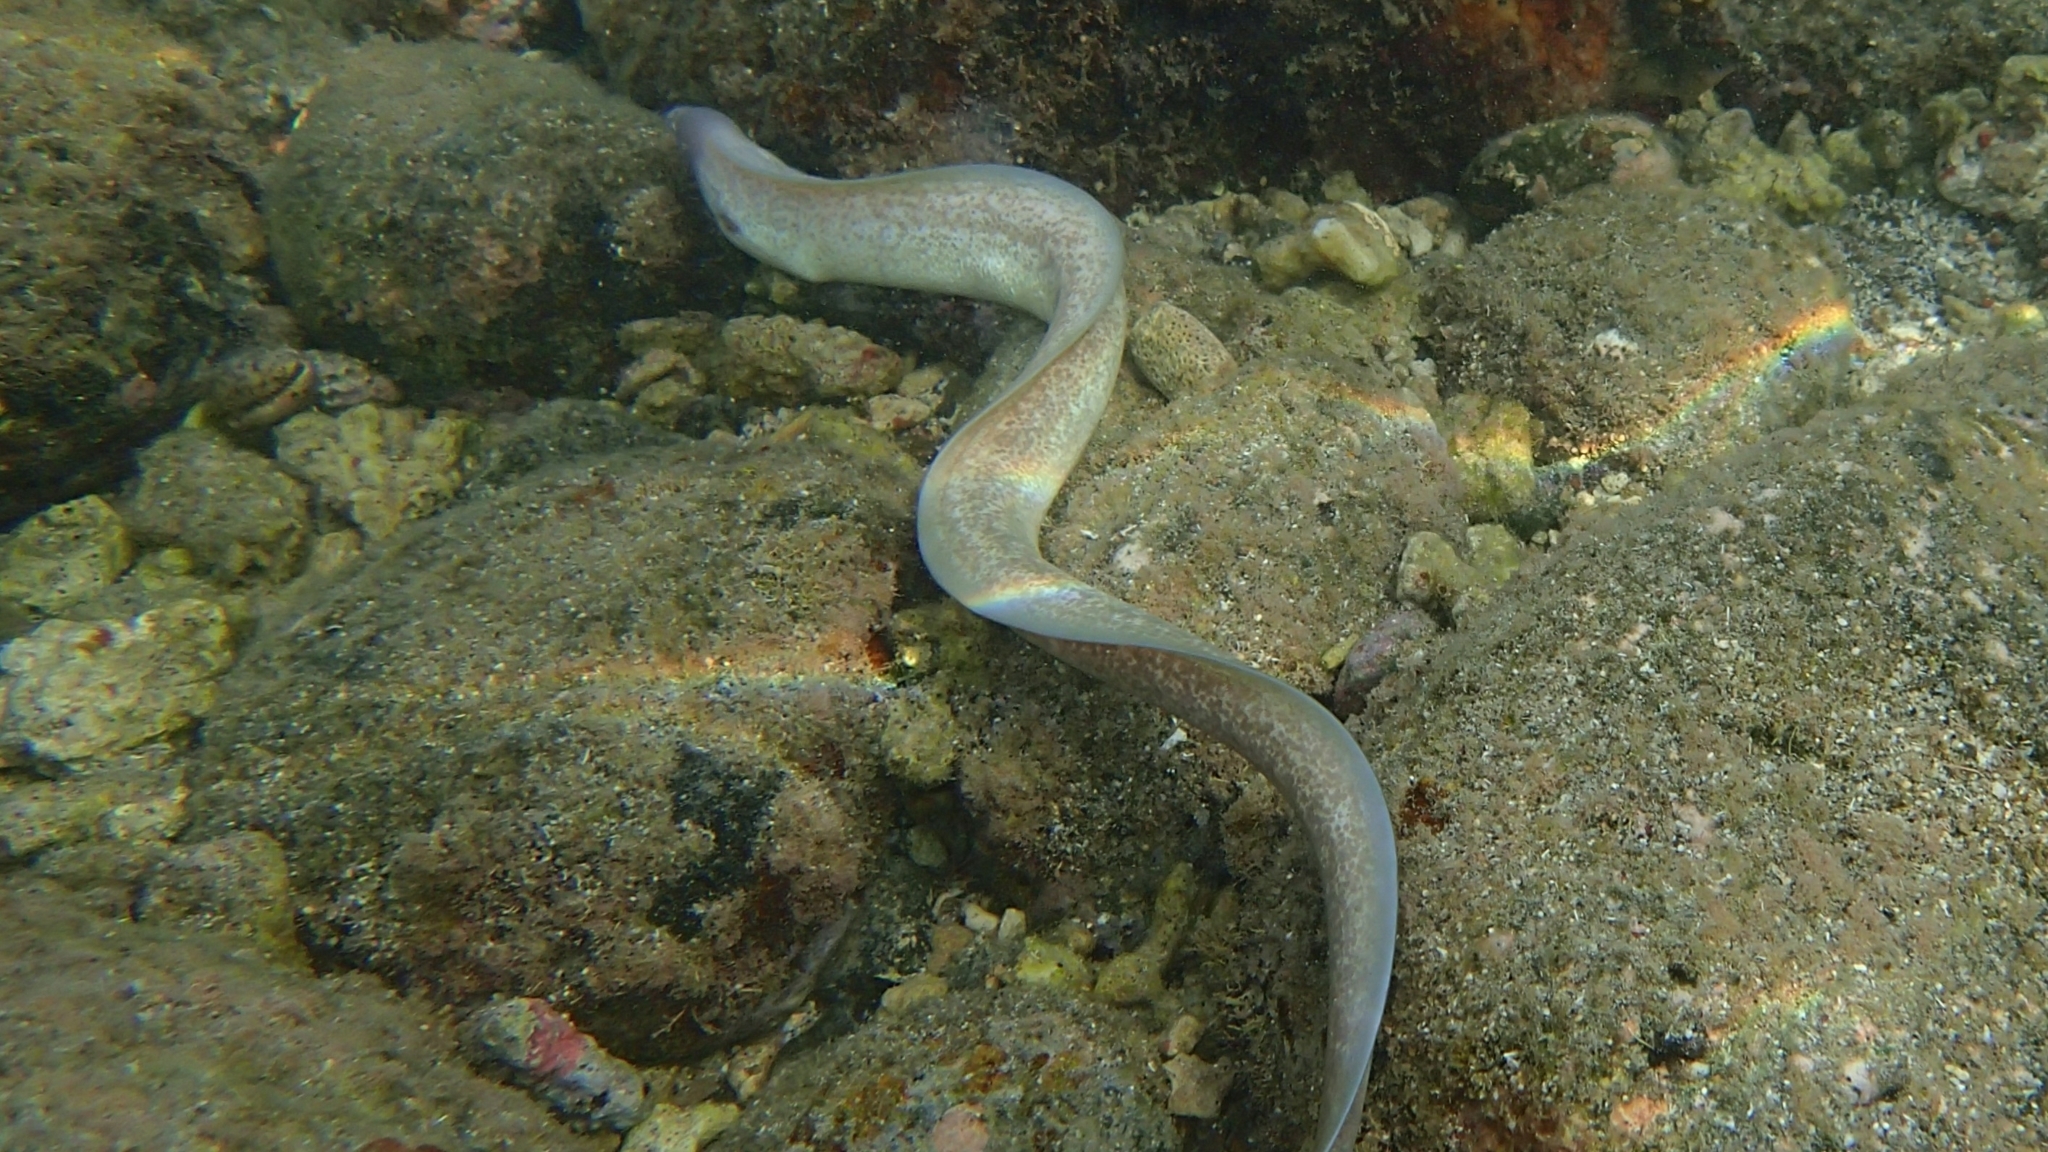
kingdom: Animalia
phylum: Chordata
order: Anguilliformes
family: Muraenidae
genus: Gymnothorax
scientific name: Gymnothorax griseus
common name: Geometric moray
